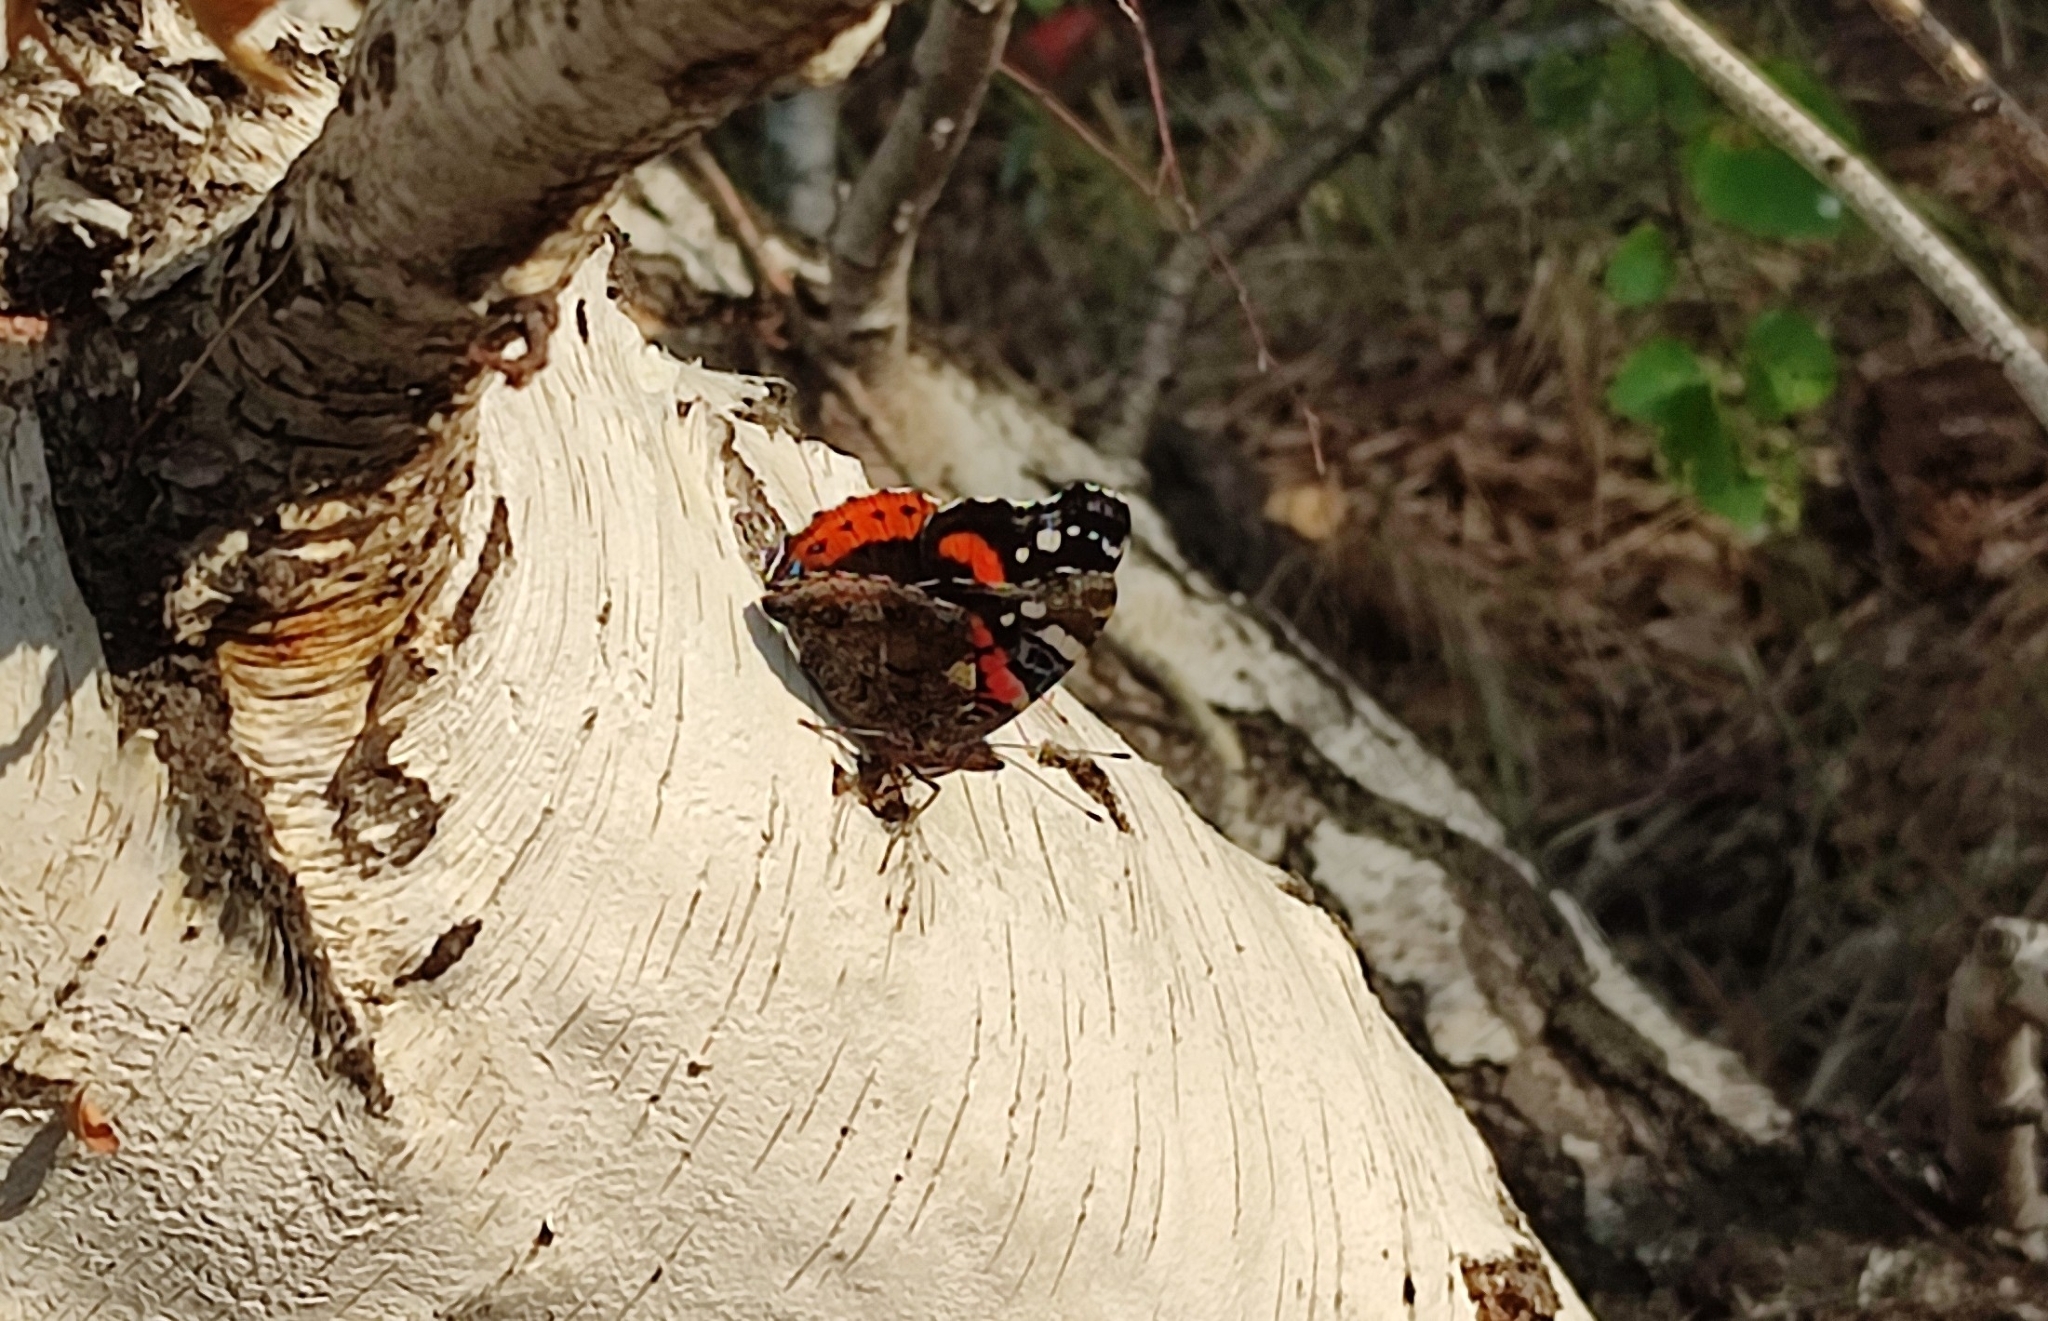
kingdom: Animalia
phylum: Arthropoda
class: Insecta
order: Lepidoptera
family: Nymphalidae
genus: Vanessa
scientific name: Vanessa atalanta
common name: Red admiral
